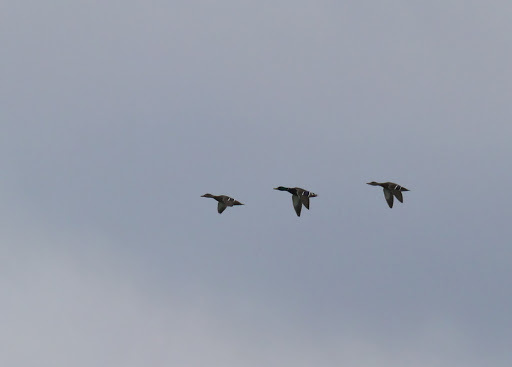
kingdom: Animalia
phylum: Chordata
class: Aves
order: Anseriformes
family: Anatidae
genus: Anas
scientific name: Anas platyrhynchos
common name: Mallard
